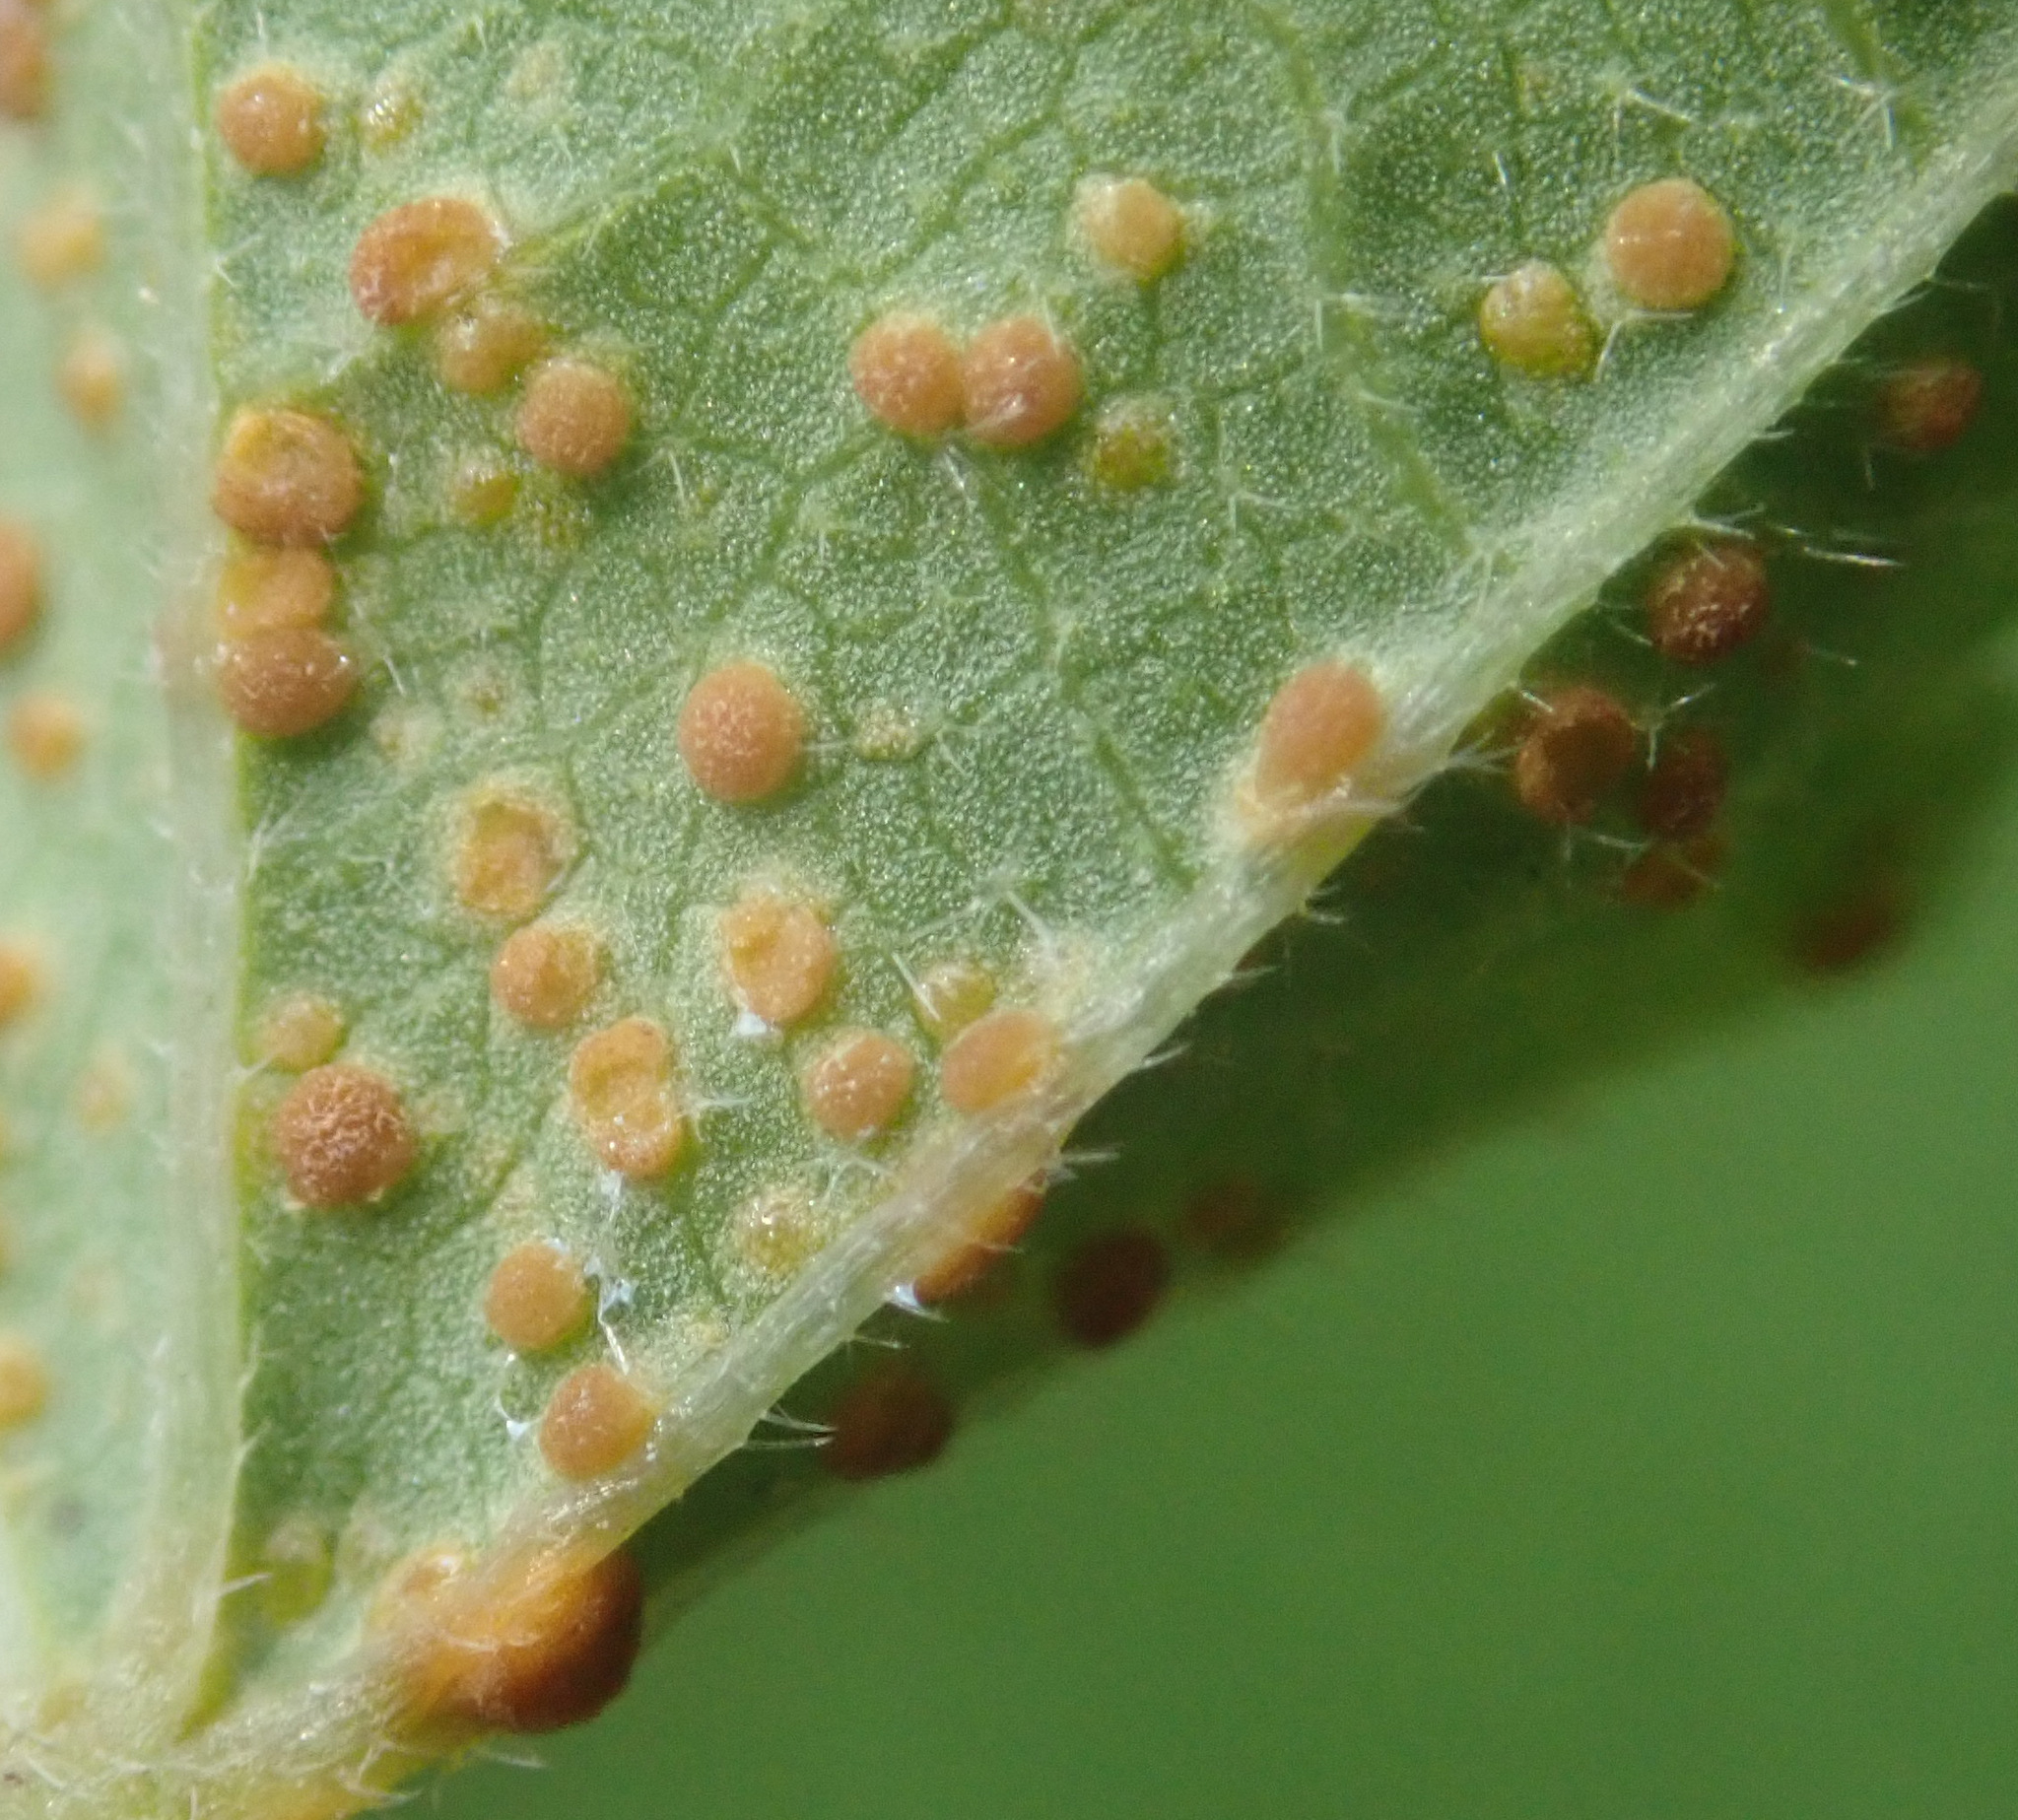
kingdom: Fungi
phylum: Basidiomycota
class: Pucciniomycetes
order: Pucciniales
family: Pucciniaceae
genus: Puccinia
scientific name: Puccinia malvacearum
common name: Hollyhock rust
